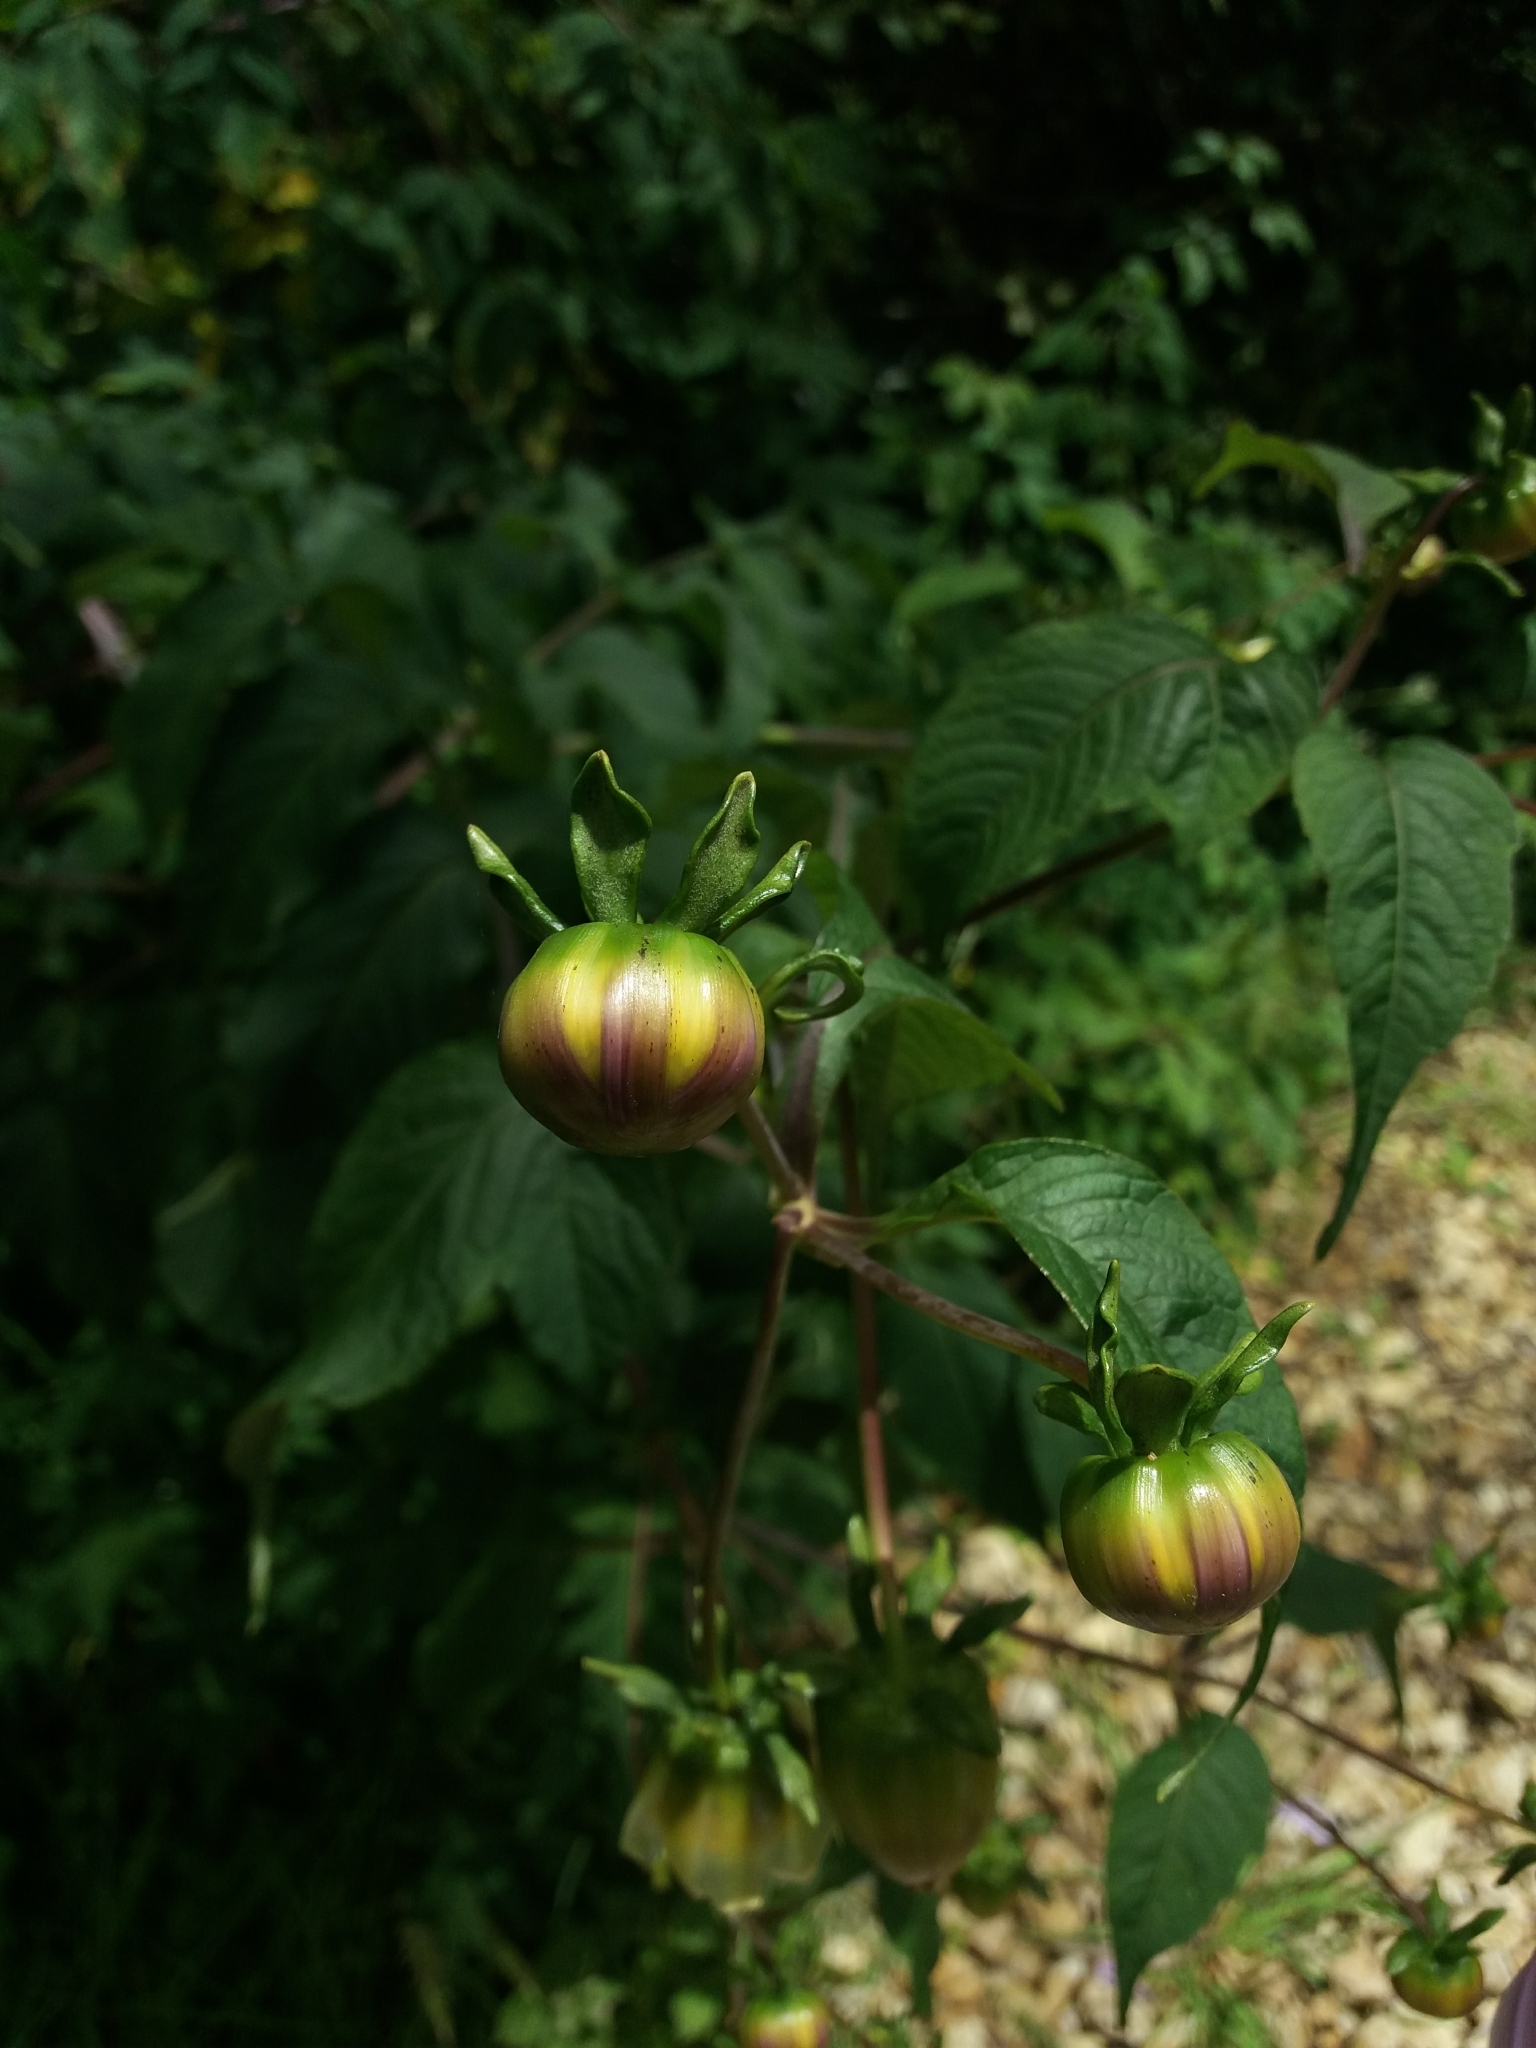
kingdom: Plantae
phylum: Tracheophyta
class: Magnoliopsida
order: Asterales
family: Asteraceae
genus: Dahlia
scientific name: Dahlia imperialis
